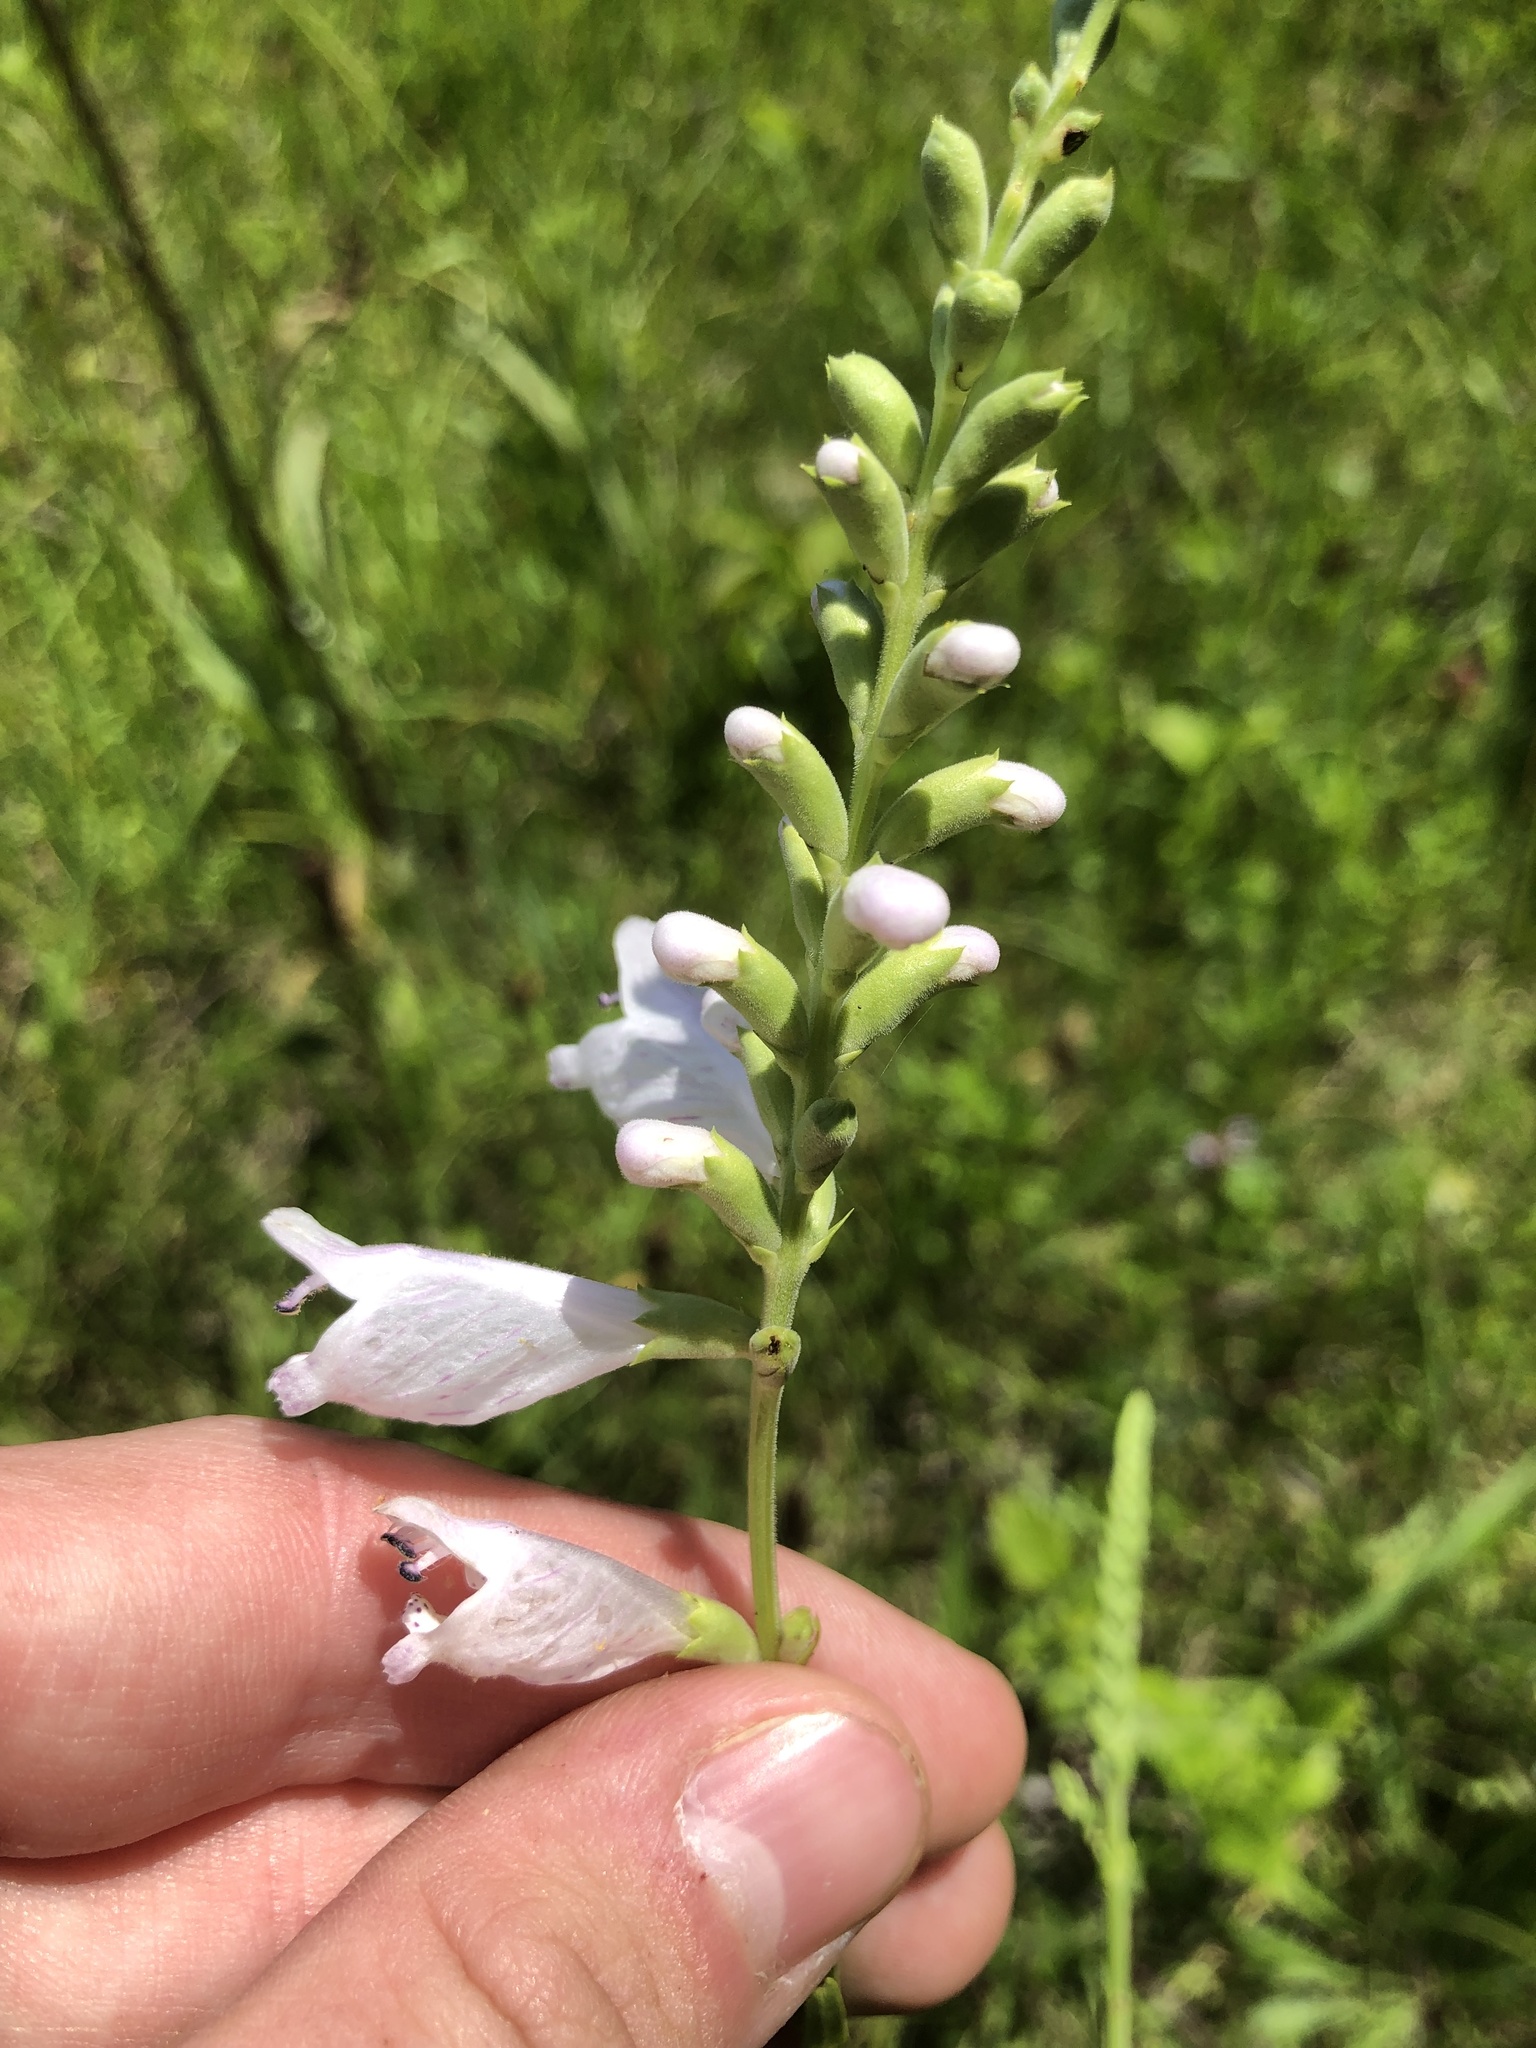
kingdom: Plantae
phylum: Tracheophyta
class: Magnoliopsida
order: Lamiales
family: Lamiaceae
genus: Physostegia
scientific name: Physostegia angustifolia
